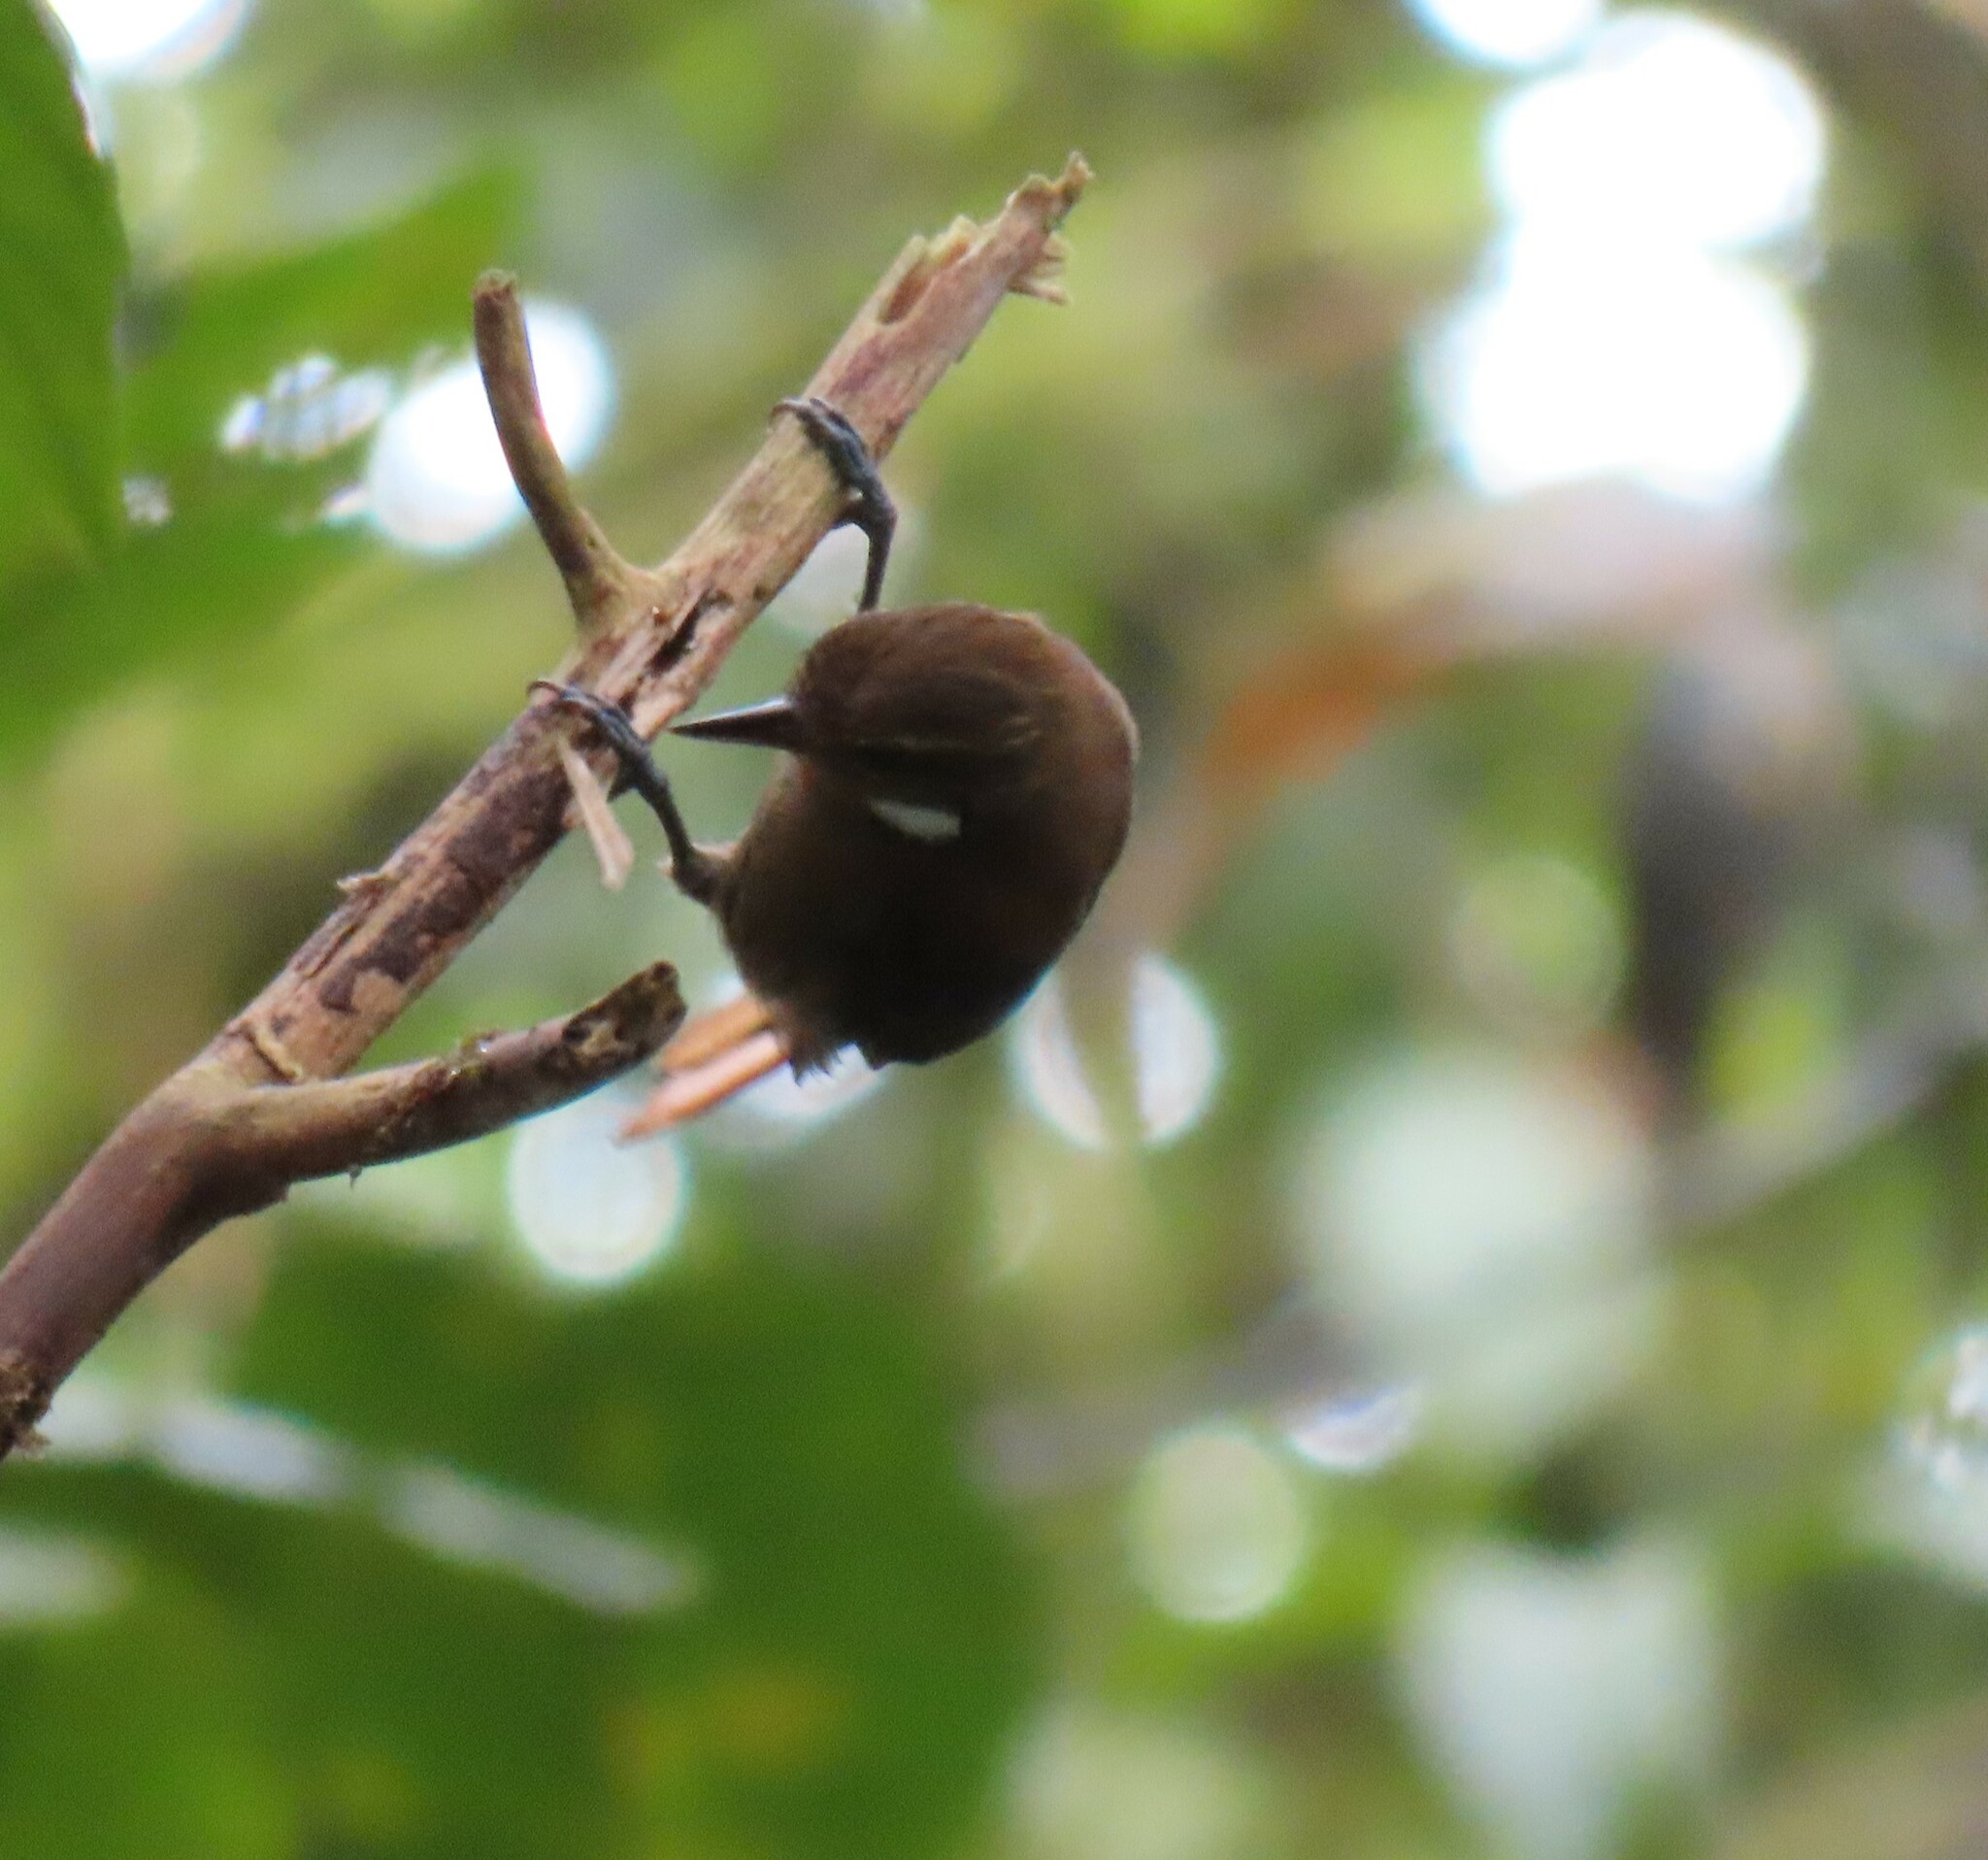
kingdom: Animalia
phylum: Chordata
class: Aves
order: Passeriformes
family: Furnariidae
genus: Xenops
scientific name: Xenops minutus
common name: Plain xenops
